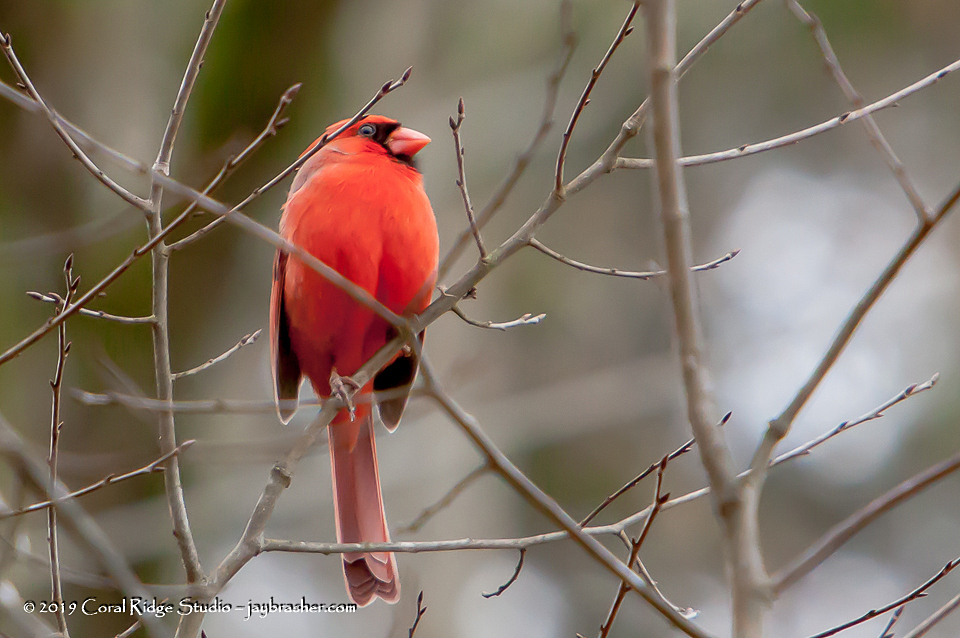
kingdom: Animalia
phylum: Chordata
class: Aves
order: Passeriformes
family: Cardinalidae
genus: Cardinalis
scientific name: Cardinalis cardinalis
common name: Northern cardinal
